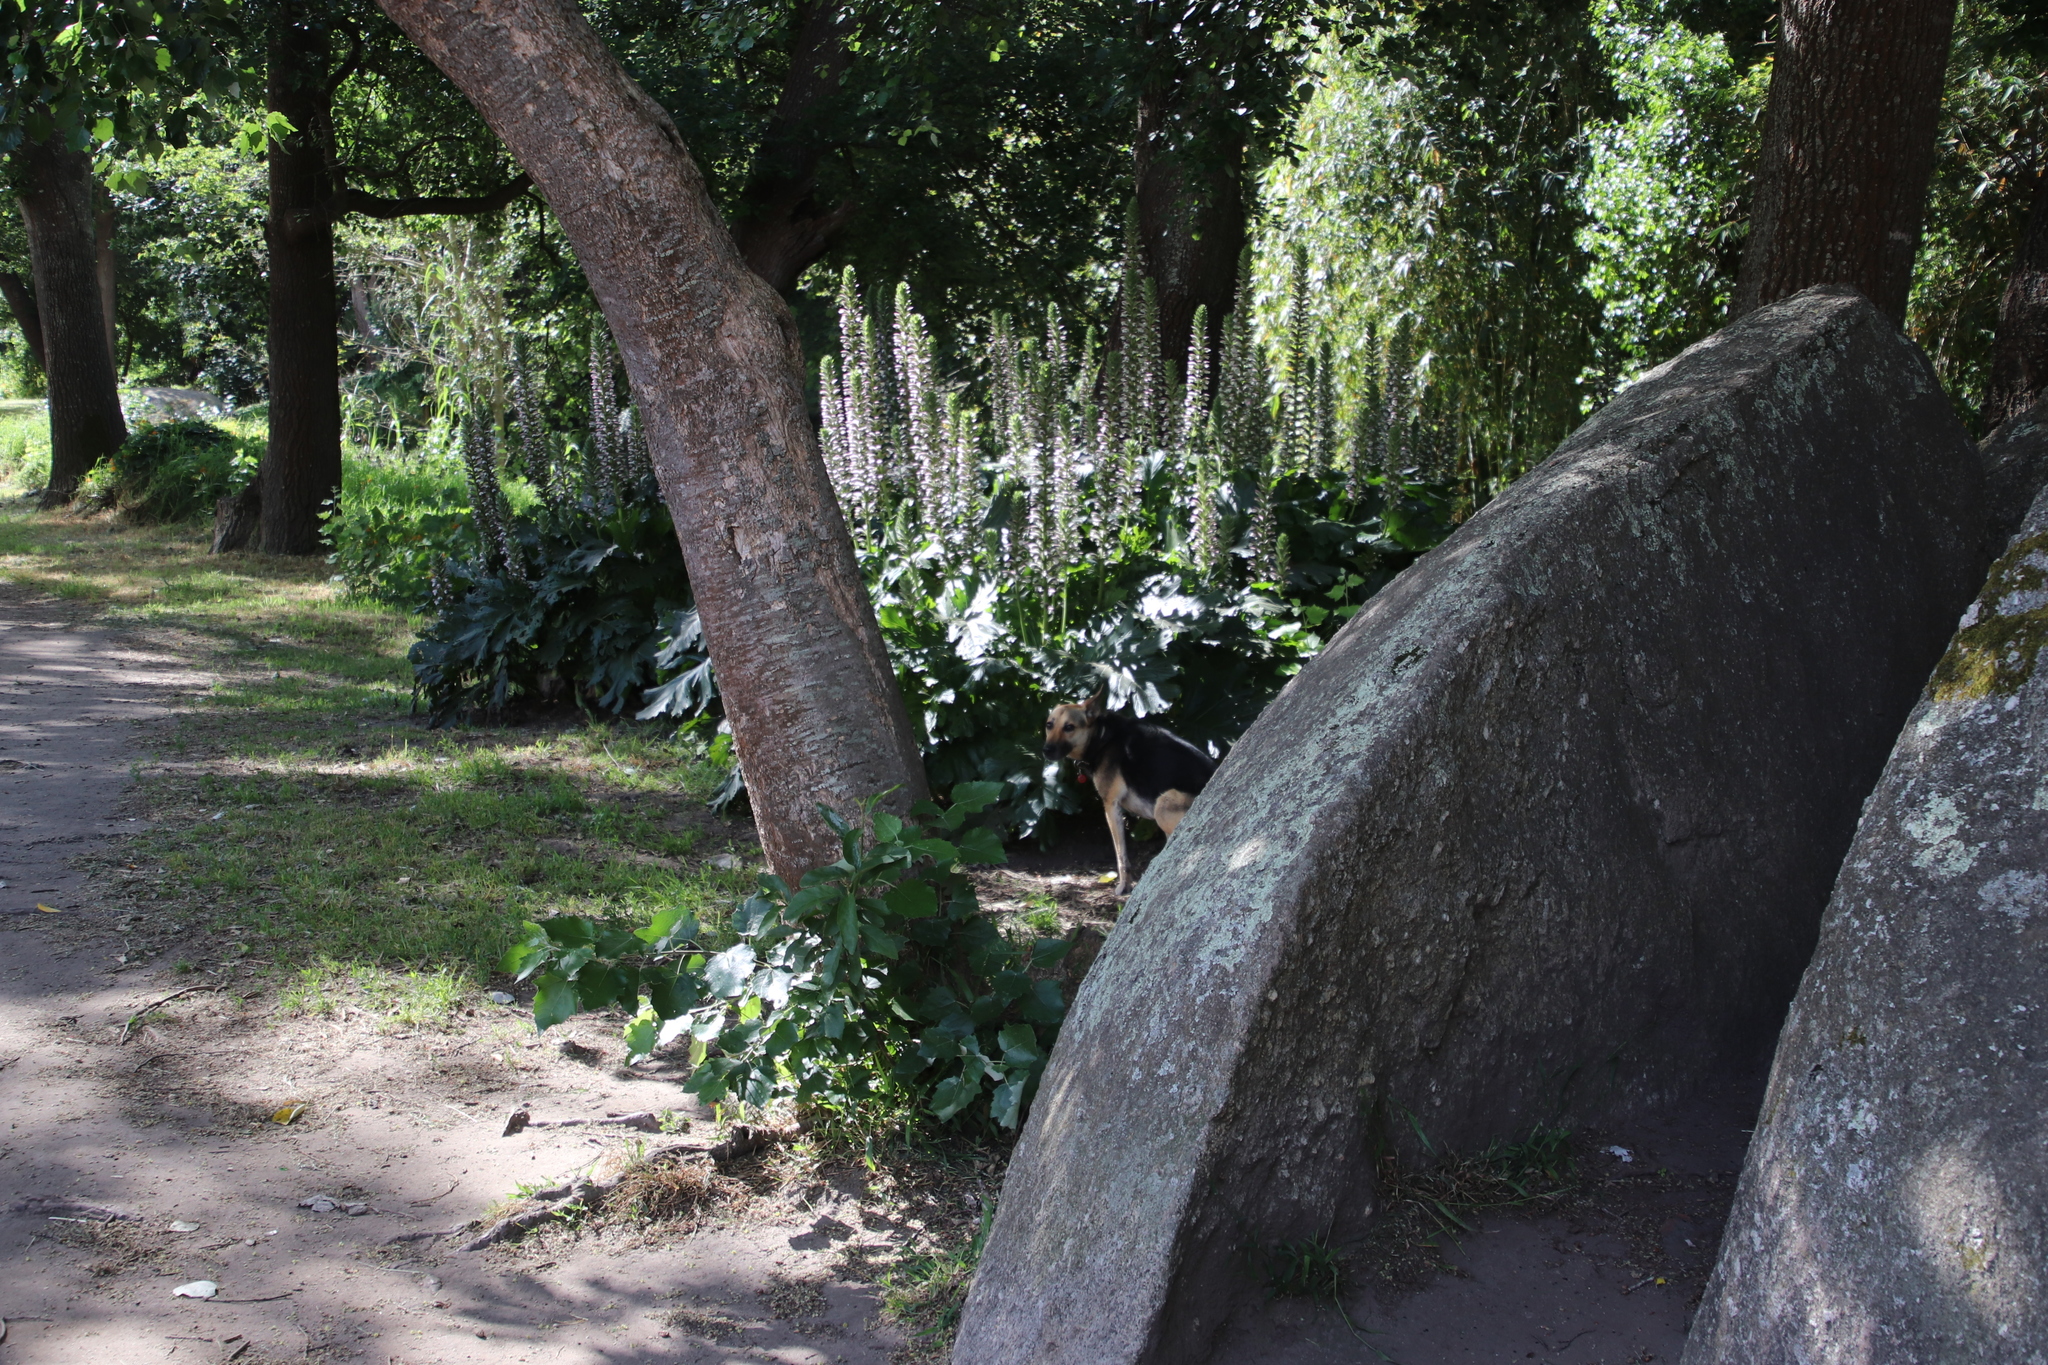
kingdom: Plantae
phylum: Tracheophyta
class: Magnoliopsida
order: Lamiales
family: Acanthaceae
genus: Acanthus
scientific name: Acanthus mollis
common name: Bear's-breech
